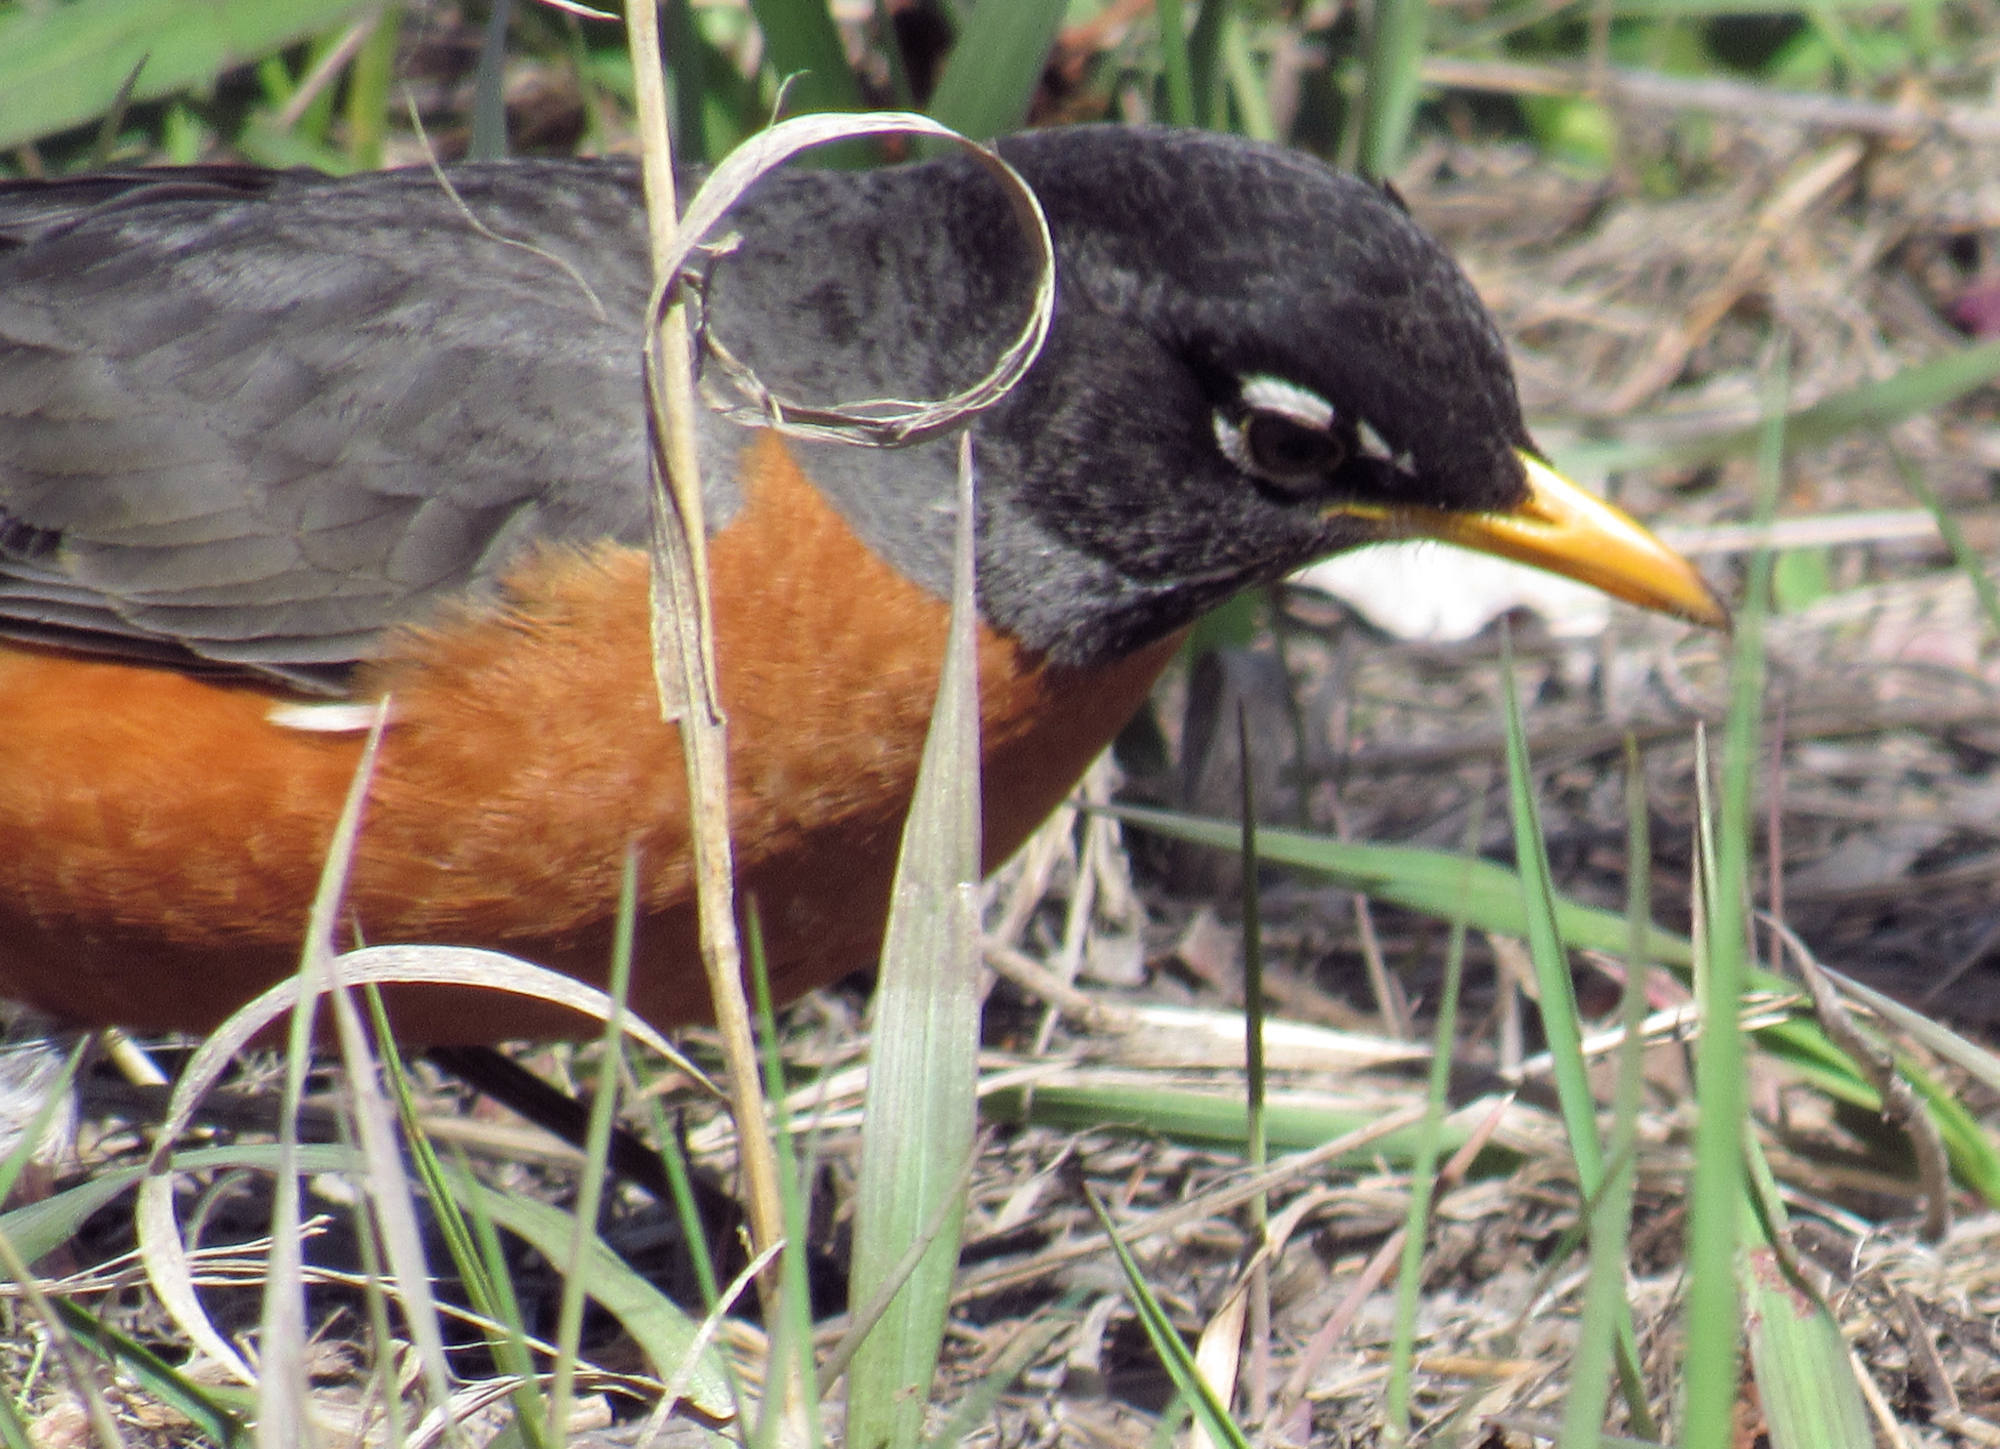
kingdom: Animalia
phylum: Chordata
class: Aves
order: Passeriformes
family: Turdidae
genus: Turdus
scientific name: Turdus migratorius
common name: American robin
